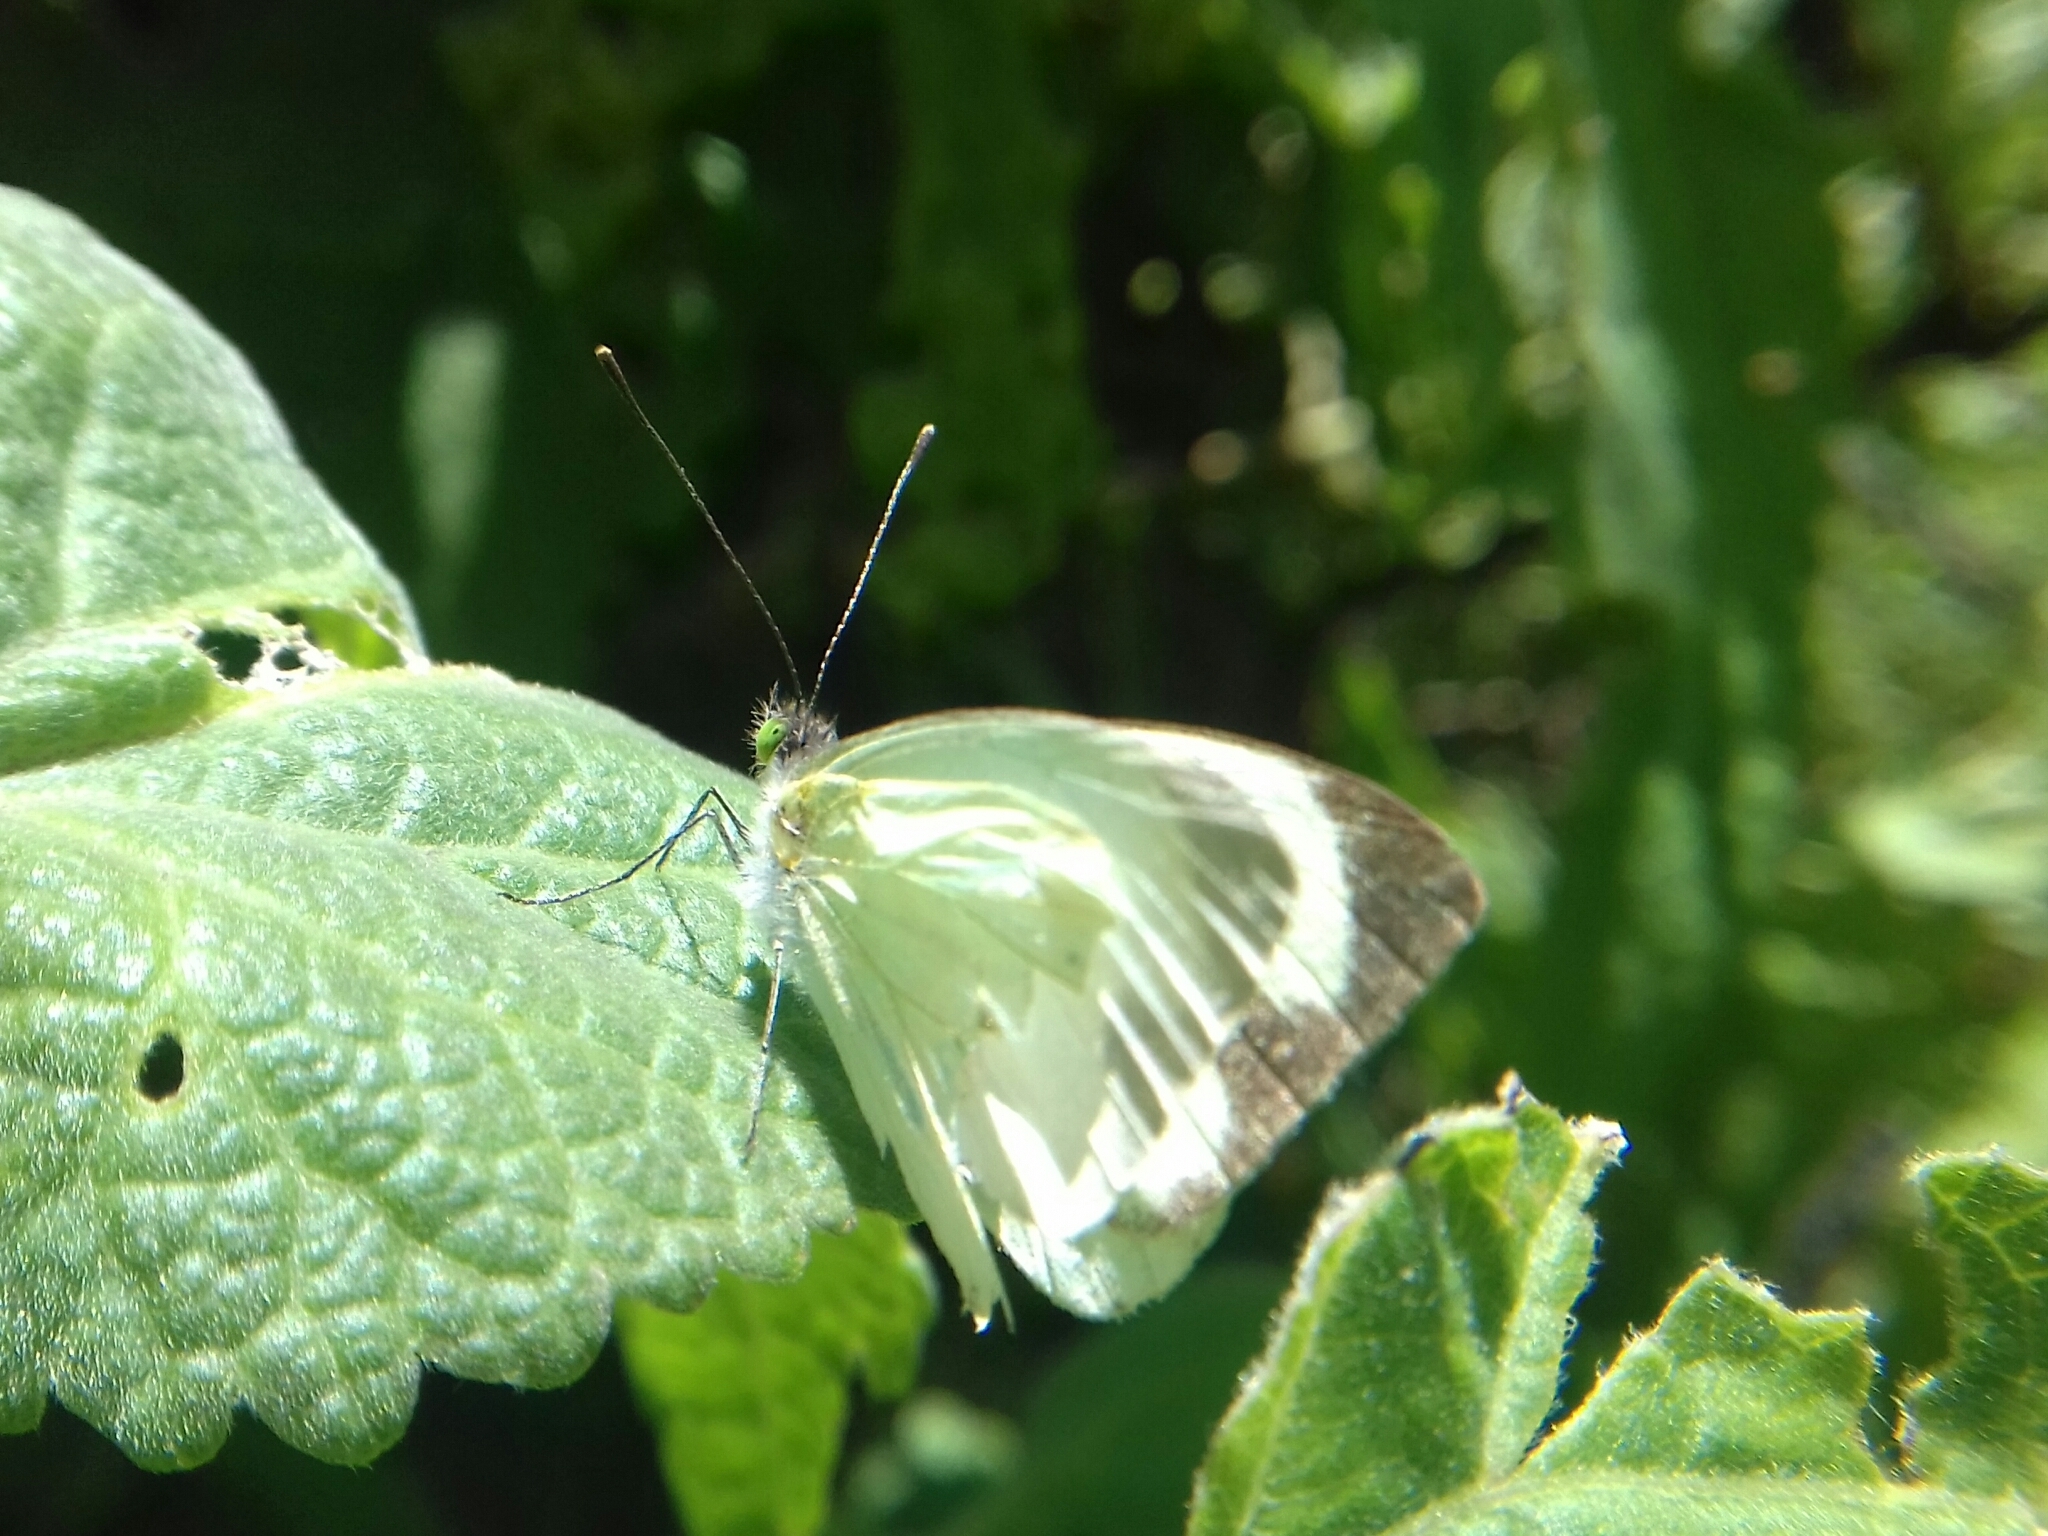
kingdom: Animalia
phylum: Arthropoda
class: Insecta
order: Lepidoptera
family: Pieridae
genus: Leptophobia
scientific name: Leptophobia aripa
